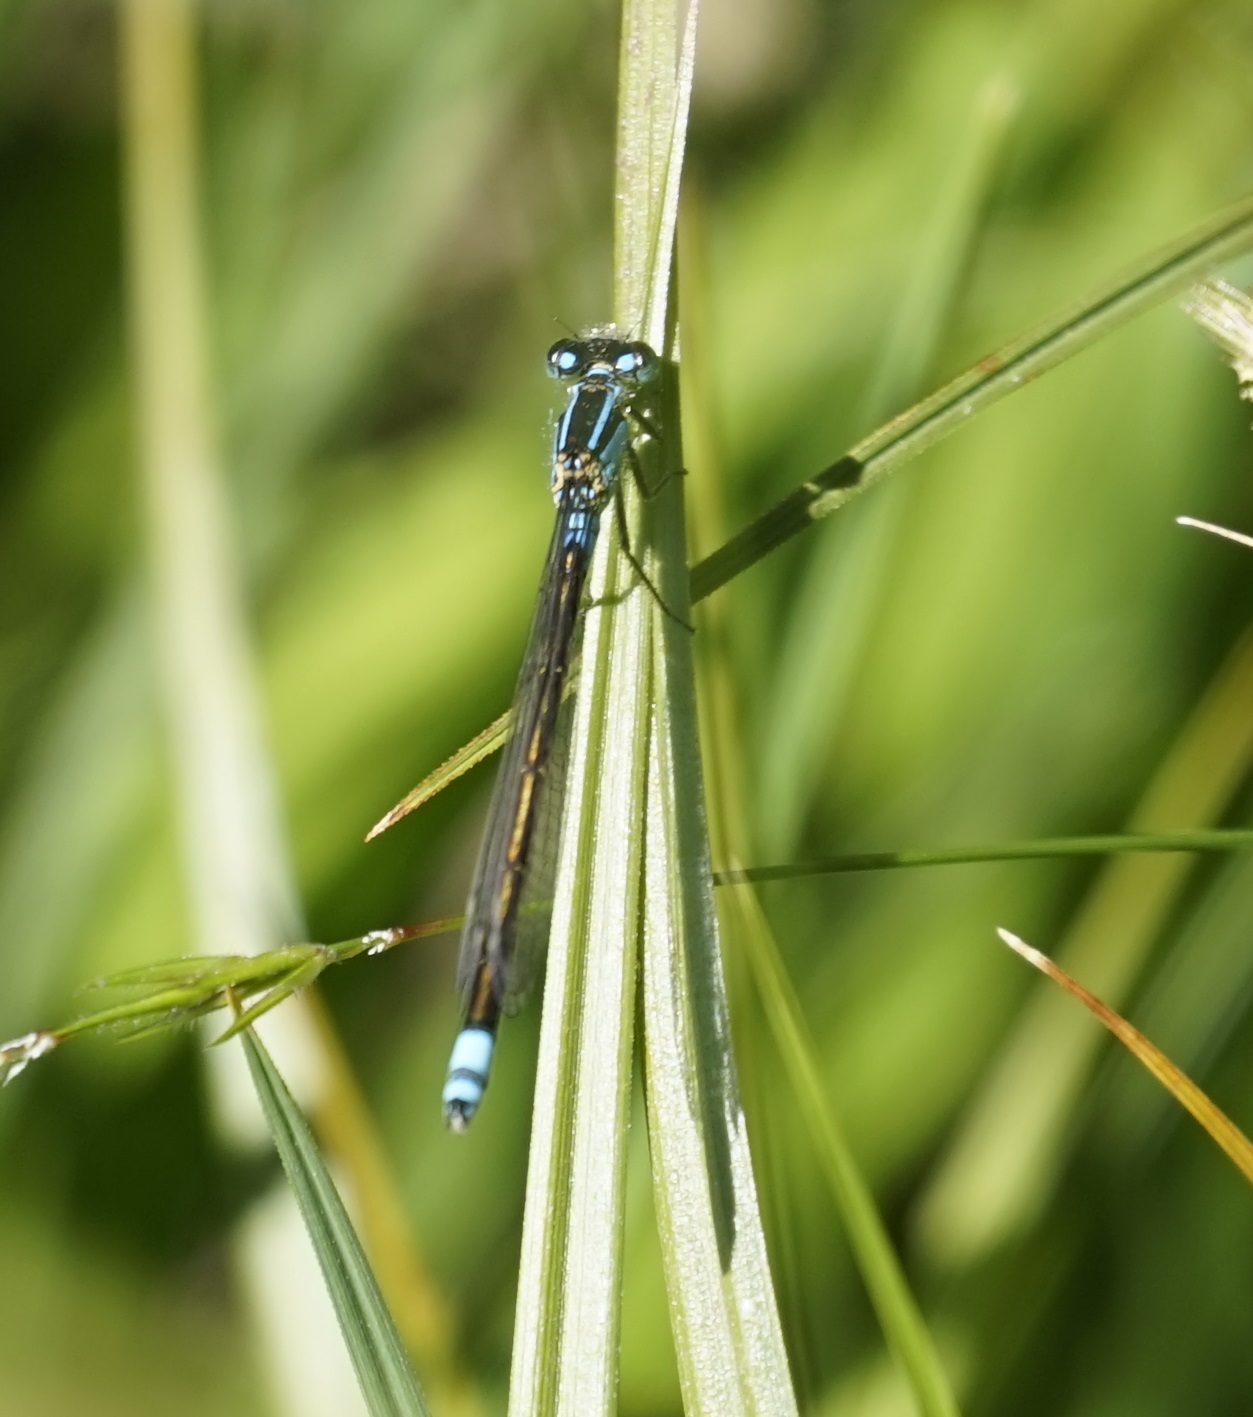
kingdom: Animalia
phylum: Arthropoda
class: Insecta
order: Odonata
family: Coenagrionidae
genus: Ischnura
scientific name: Ischnura heterosticta
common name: Common bluetail
